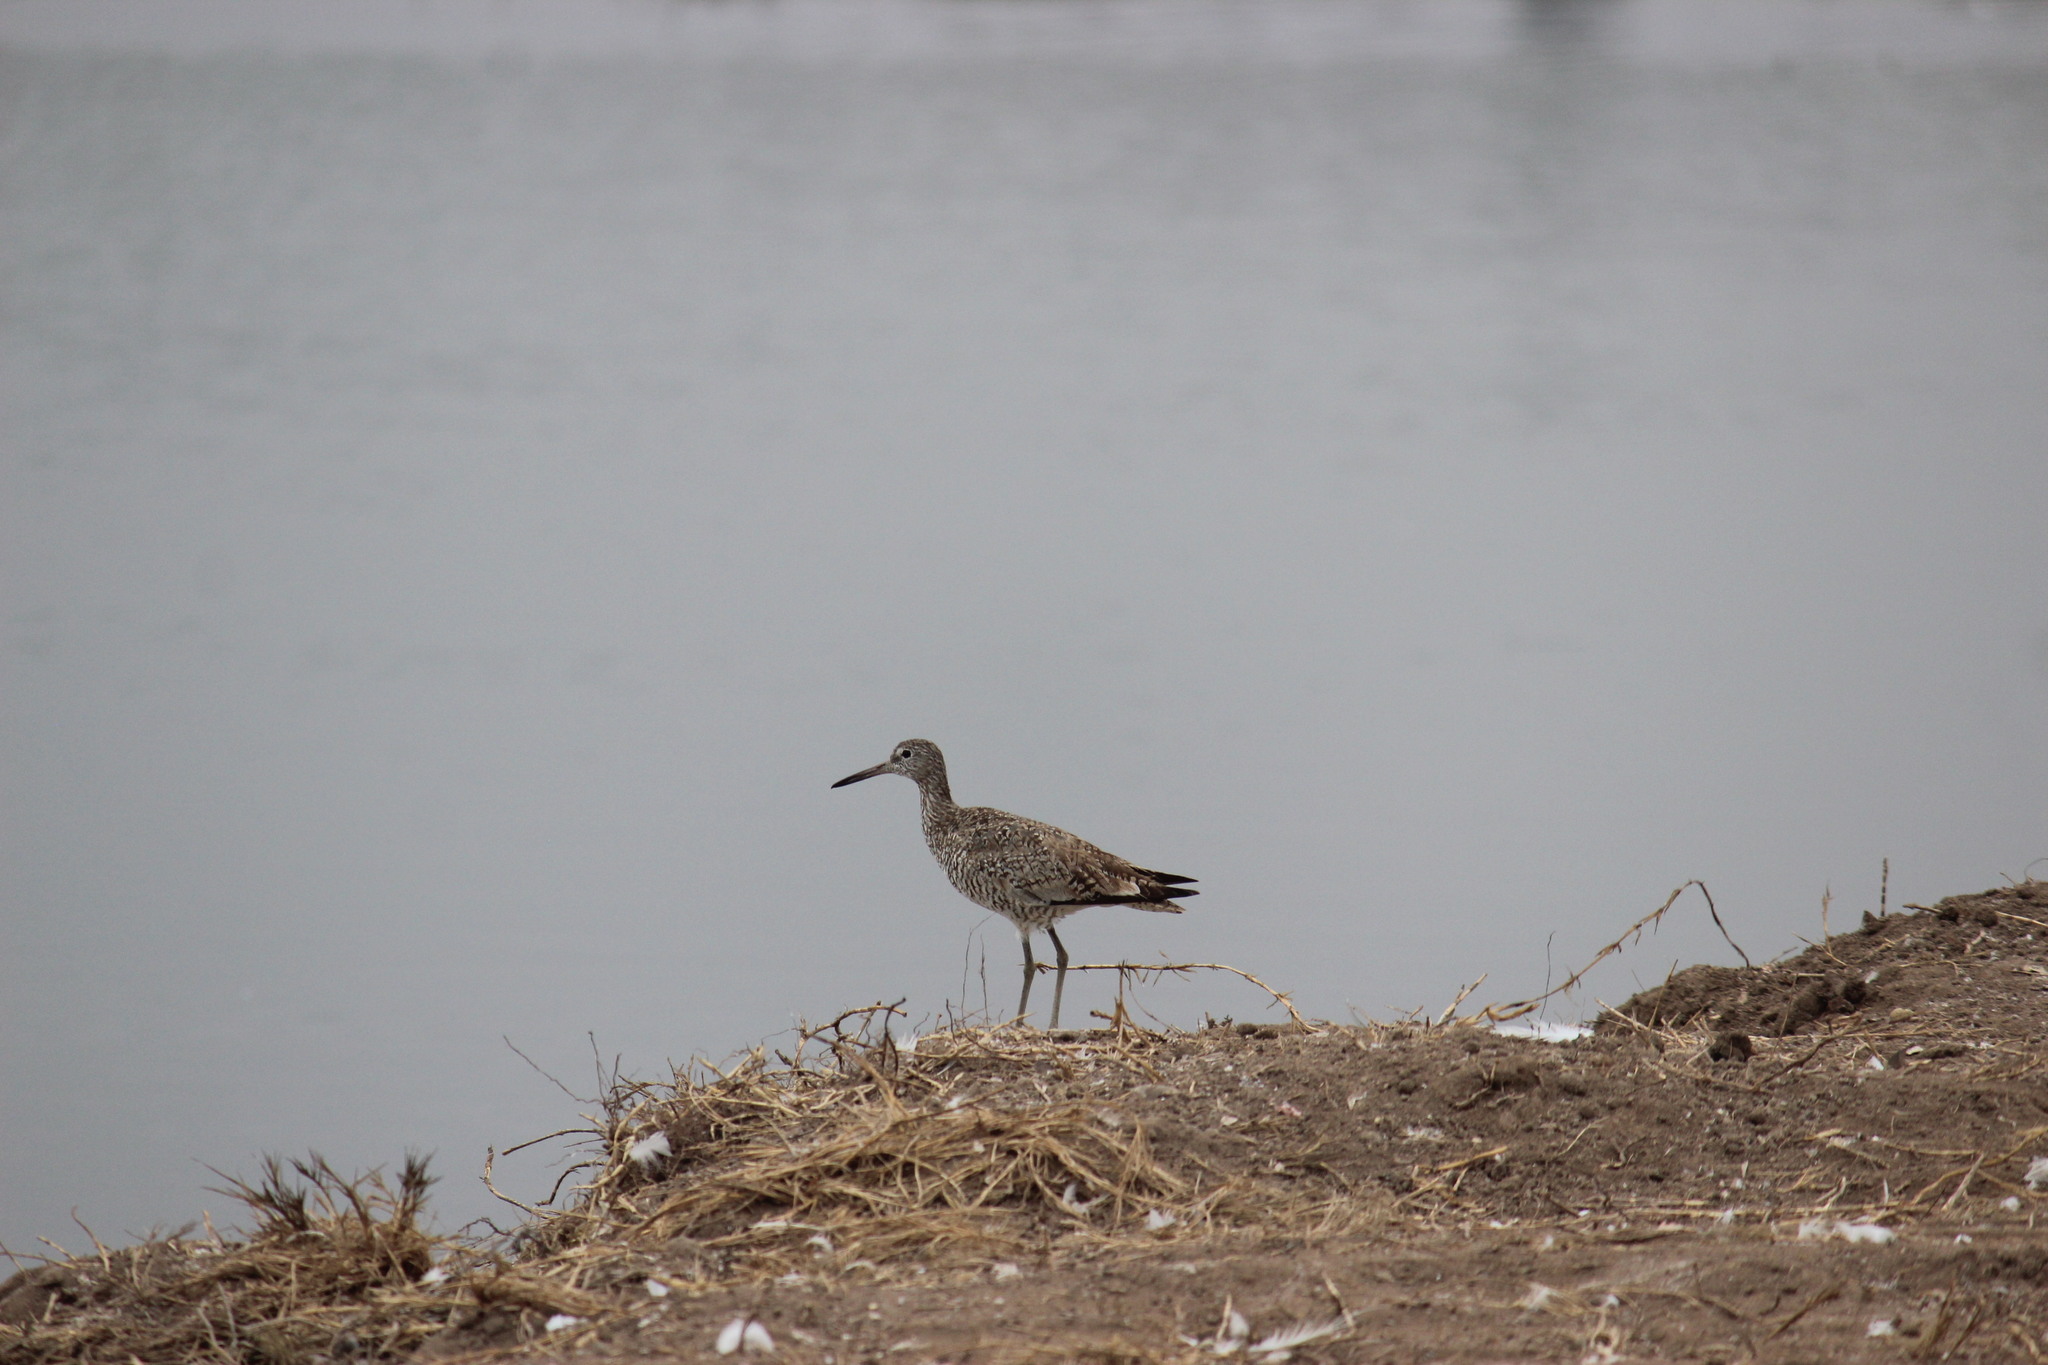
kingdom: Animalia
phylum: Chordata
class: Aves
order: Charadriiformes
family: Scolopacidae
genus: Tringa
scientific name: Tringa semipalmata
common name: Willet
